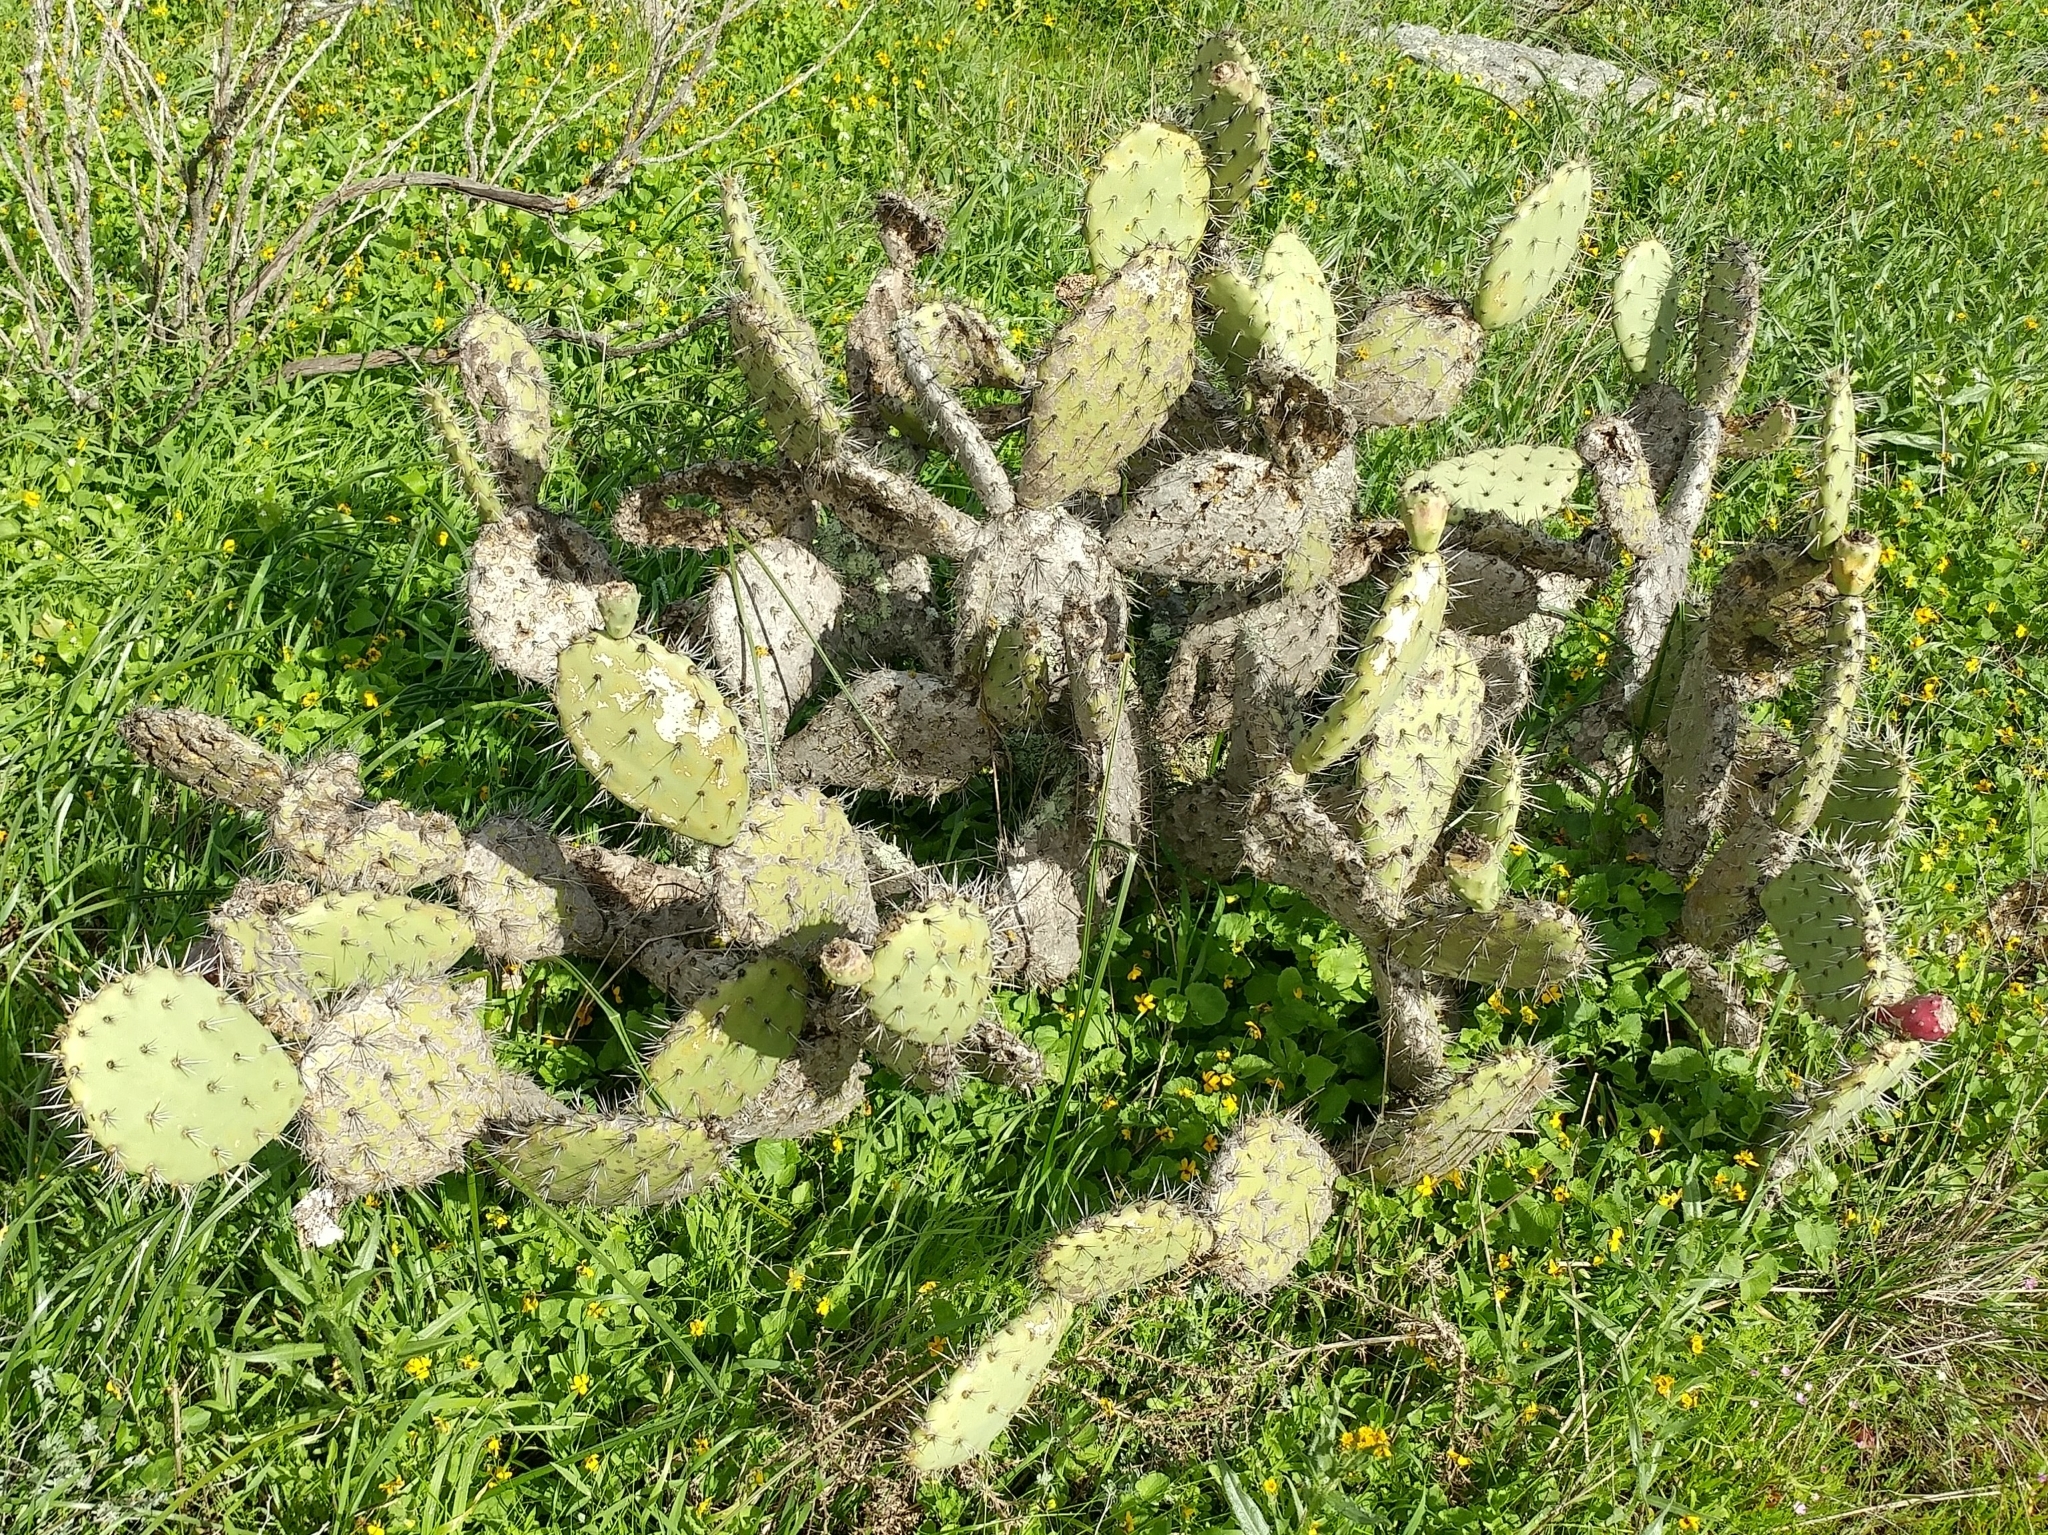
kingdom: Plantae
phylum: Tracheophyta
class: Magnoliopsida
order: Caryophyllales
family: Cactaceae
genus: Opuntia
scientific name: Opuntia littoralis
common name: Coastal prickly-pear
